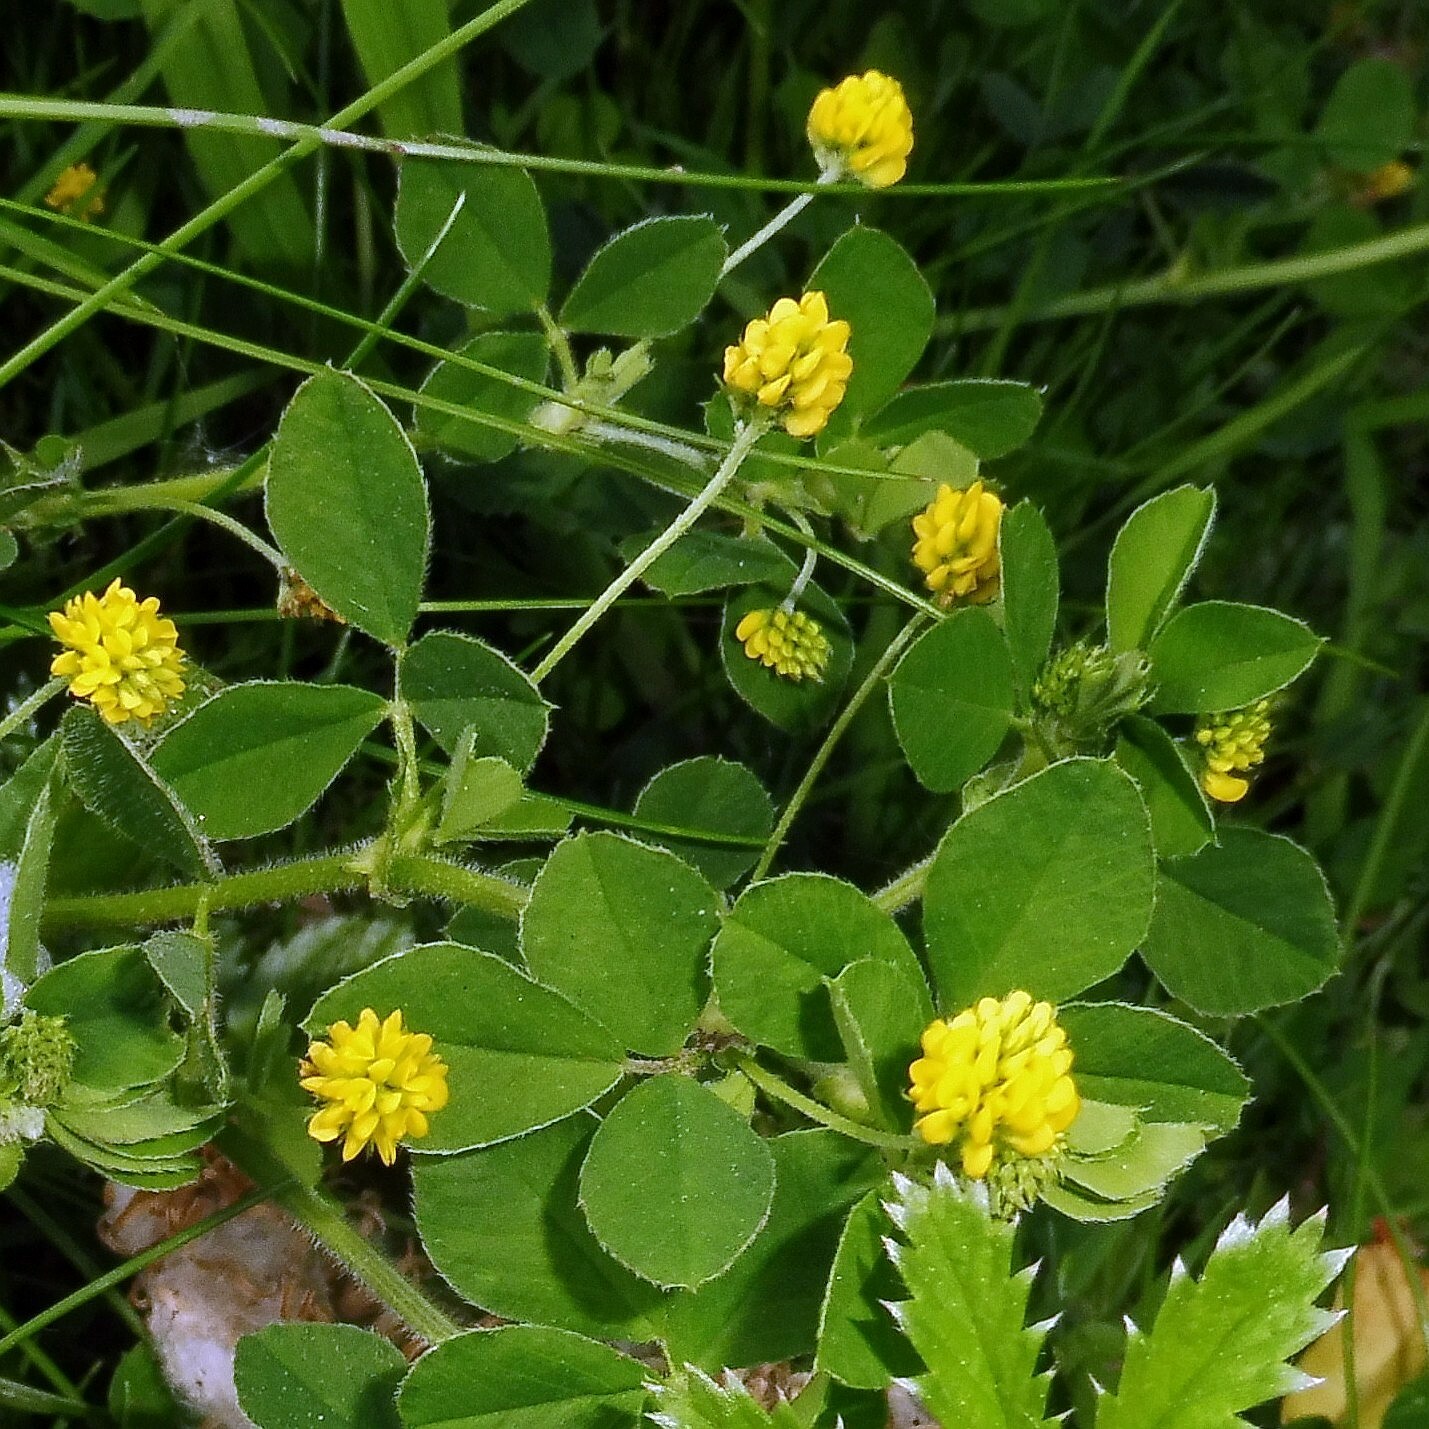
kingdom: Plantae
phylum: Tracheophyta
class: Magnoliopsida
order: Fabales
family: Fabaceae
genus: Medicago
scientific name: Medicago lupulina
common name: Black medick
